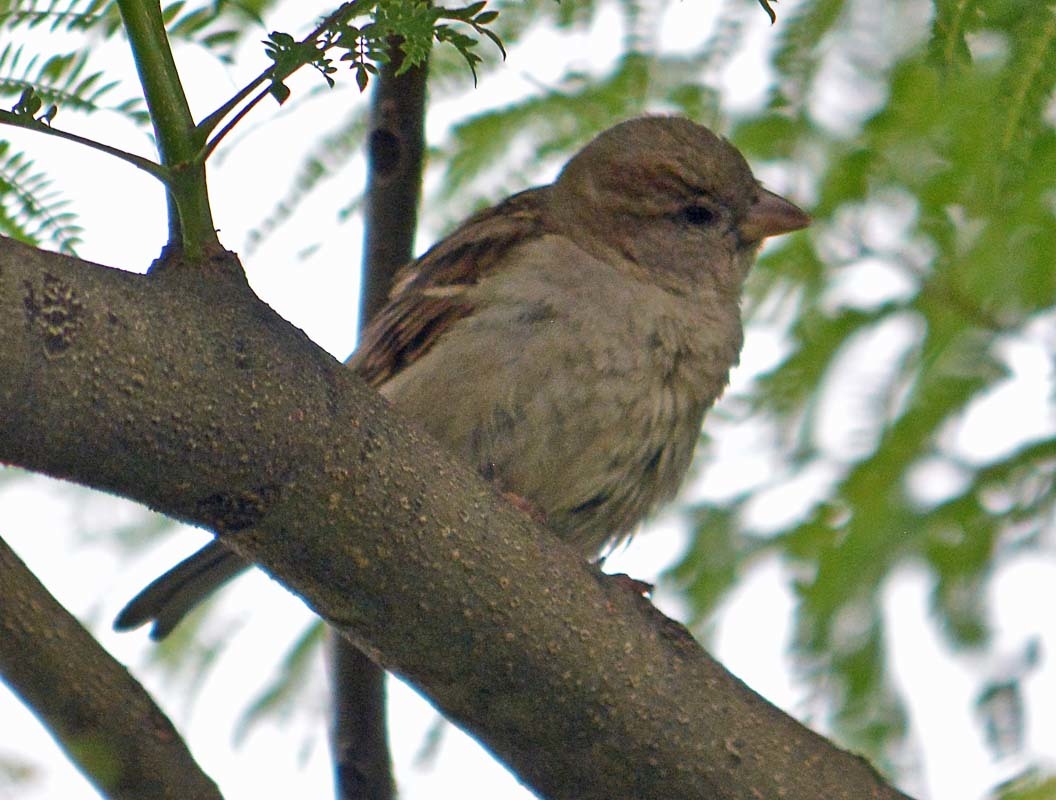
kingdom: Animalia
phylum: Chordata
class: Aves
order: Passeriformes
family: Passeridae
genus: Passer
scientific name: Passer domesticus
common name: House sparrow
